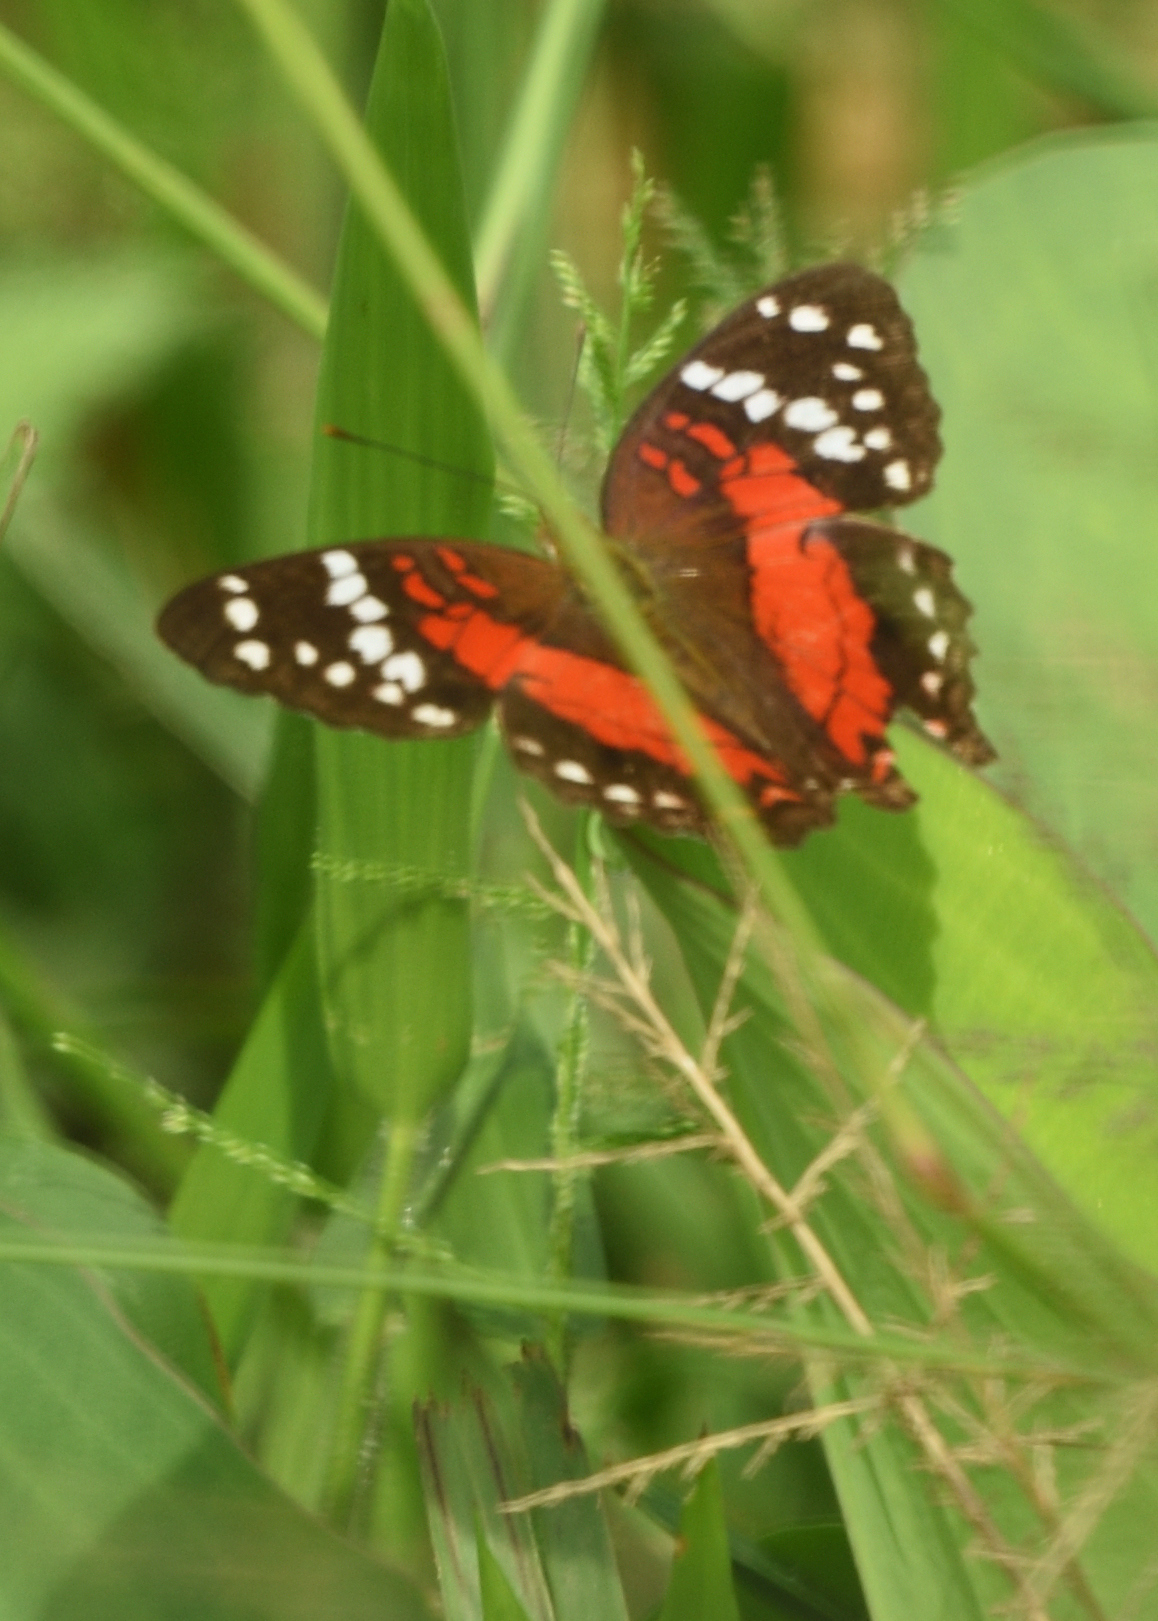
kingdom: Animalia
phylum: Arthropoda
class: Insecta
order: Lepidoptera
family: Nymphalidae
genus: Anartia
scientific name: Anartia amathea
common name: Red peacock
